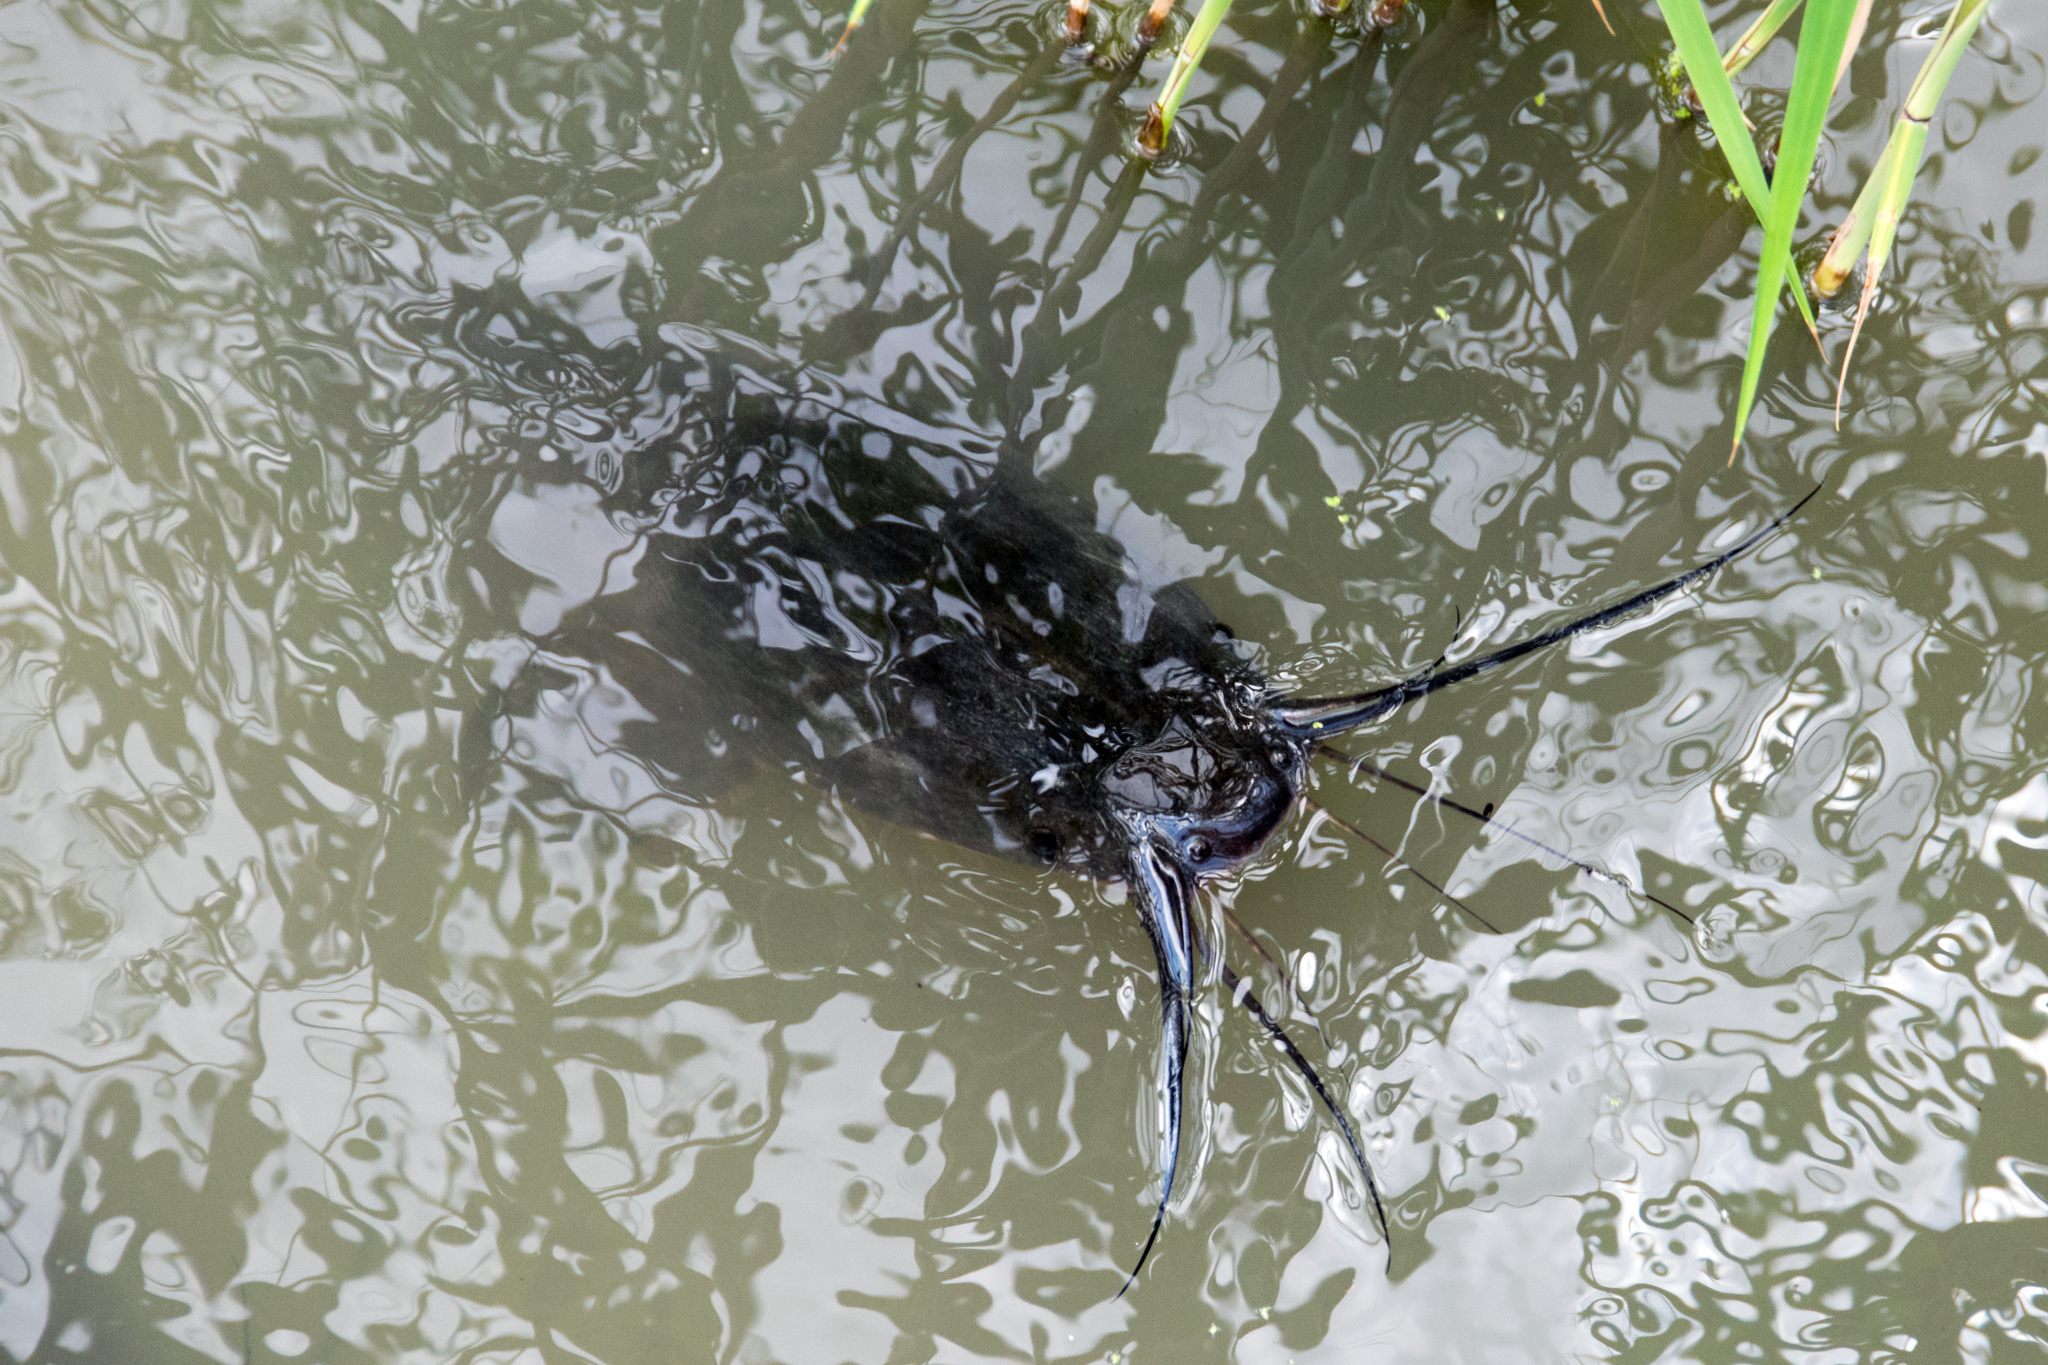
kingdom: Animalia
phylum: Chordata
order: Siluriformes
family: Clariidae
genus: Clarias
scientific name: Clarias gariepinus
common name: African catfish
